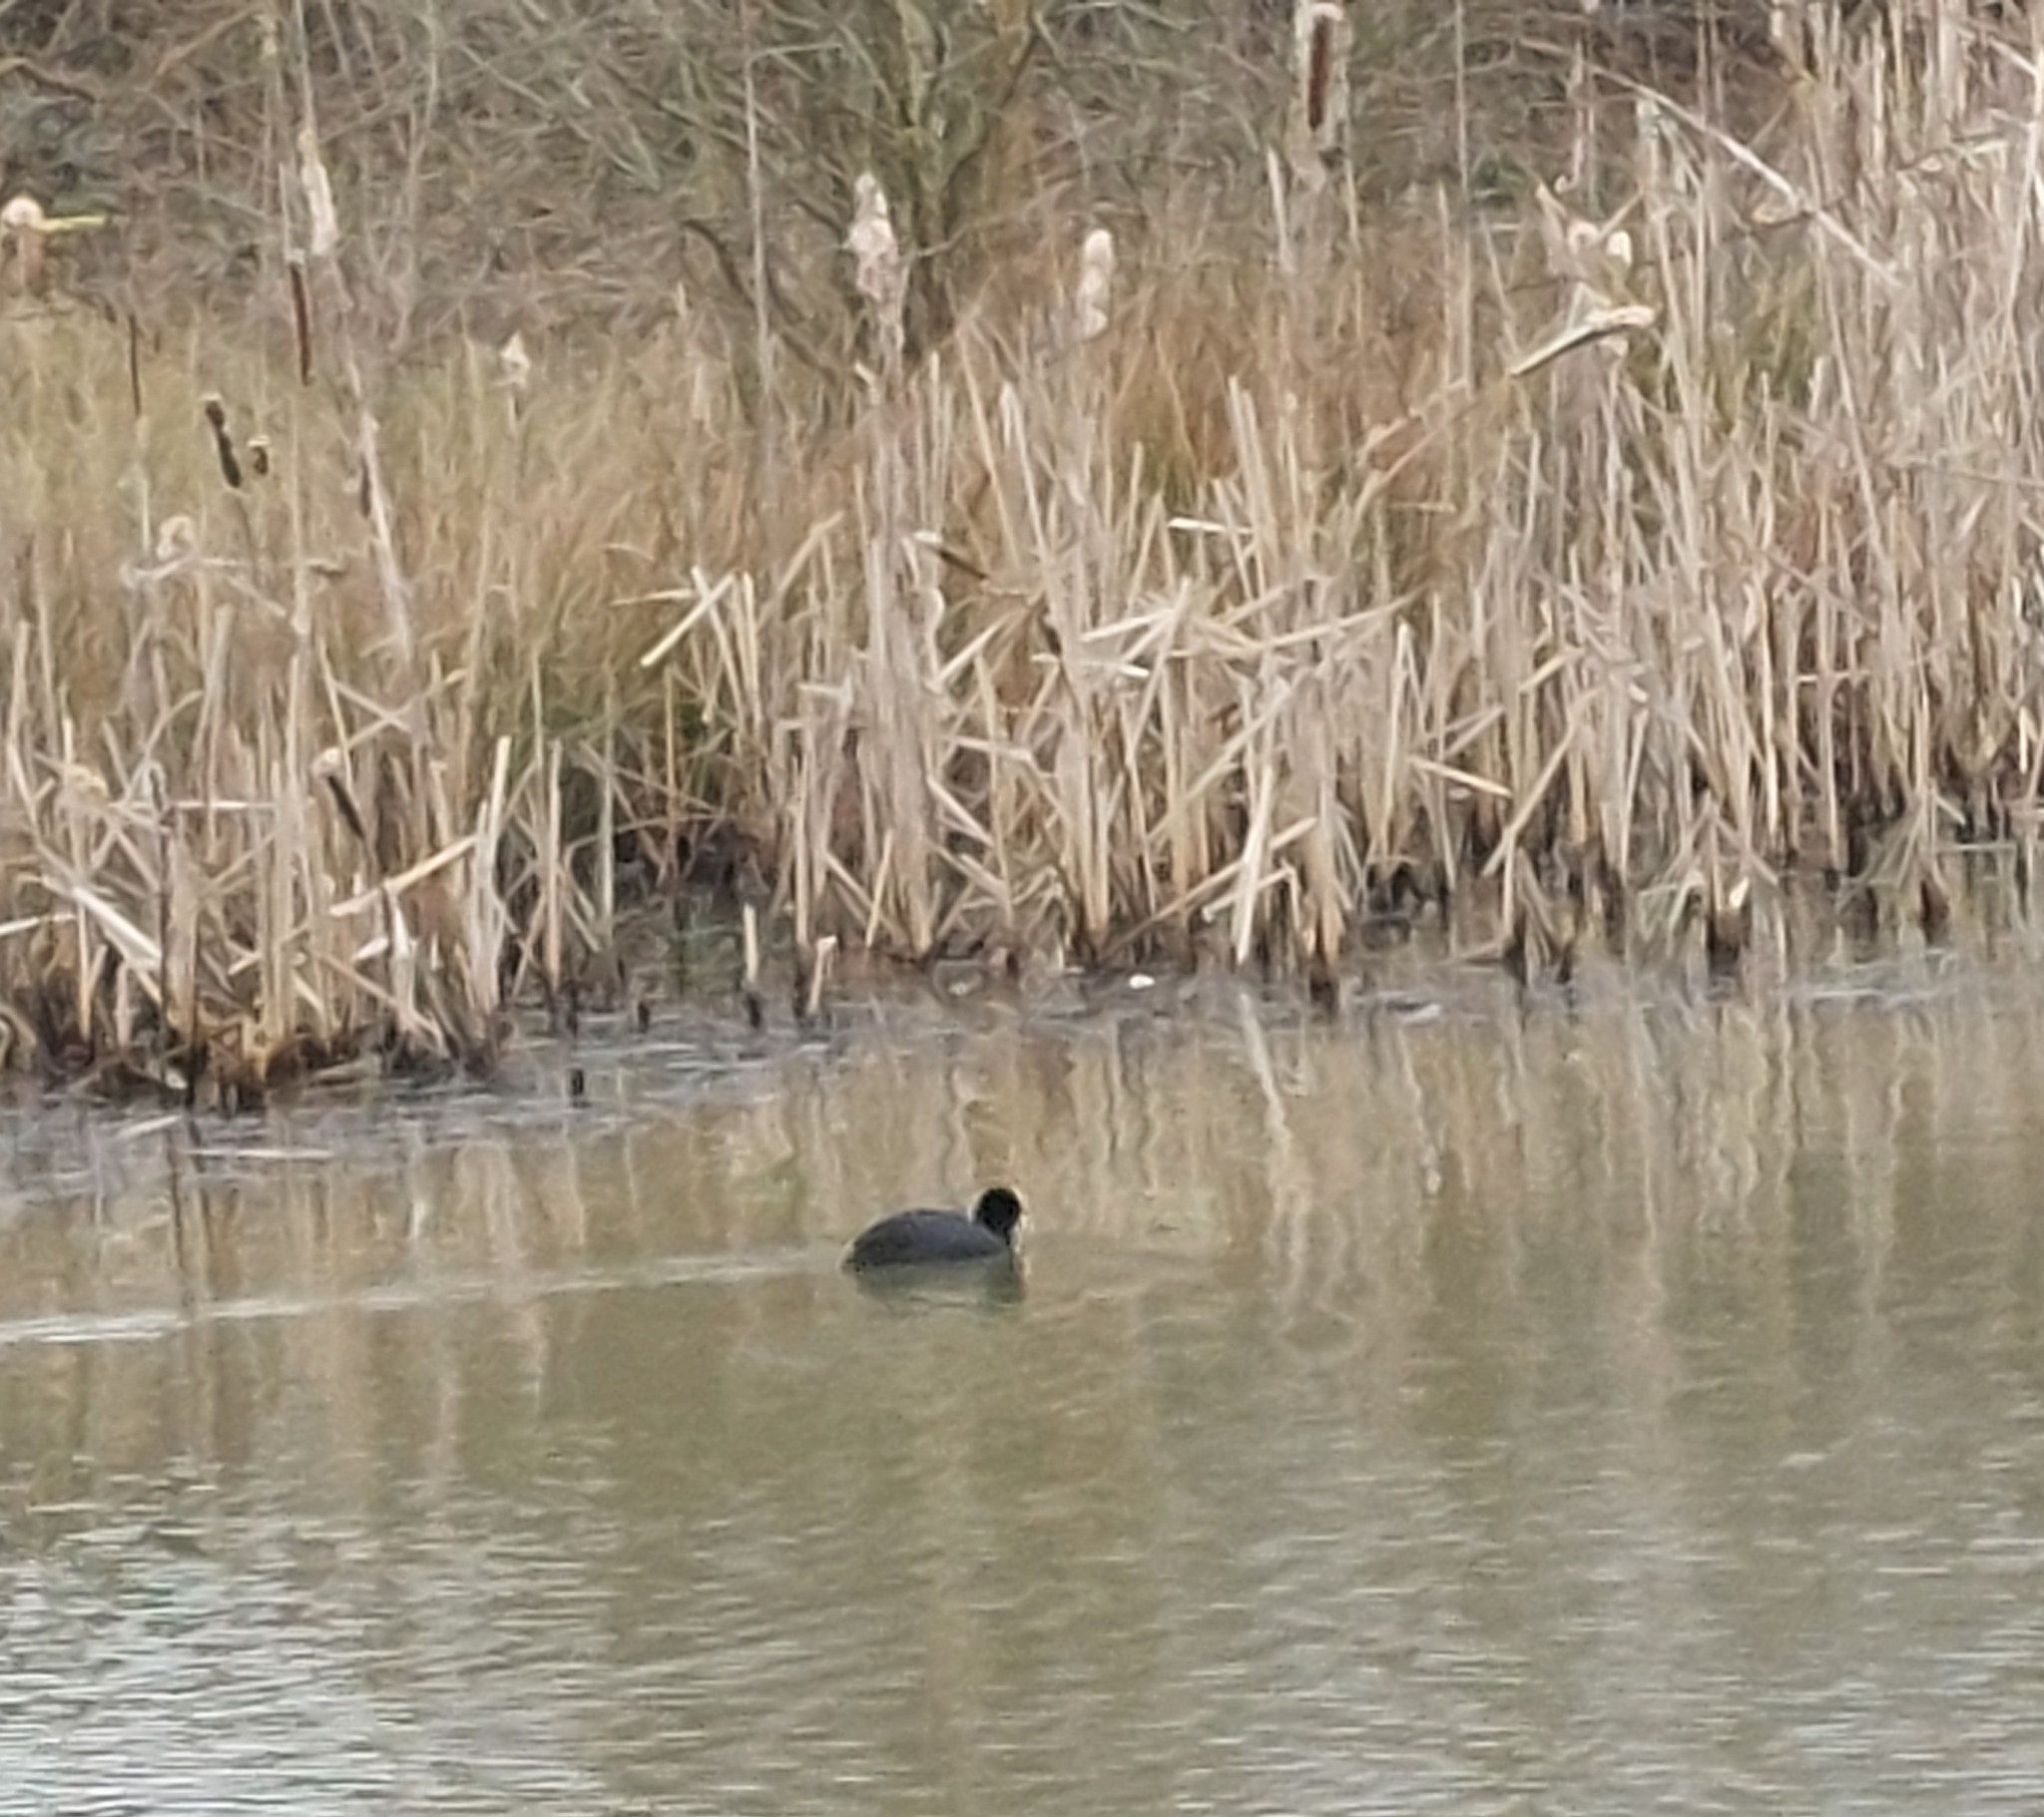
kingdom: Animalia
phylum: Chordata
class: Aves
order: Gruiformes
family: Rallidae
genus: Fulica
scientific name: Fulica atra
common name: Eurasian coot
